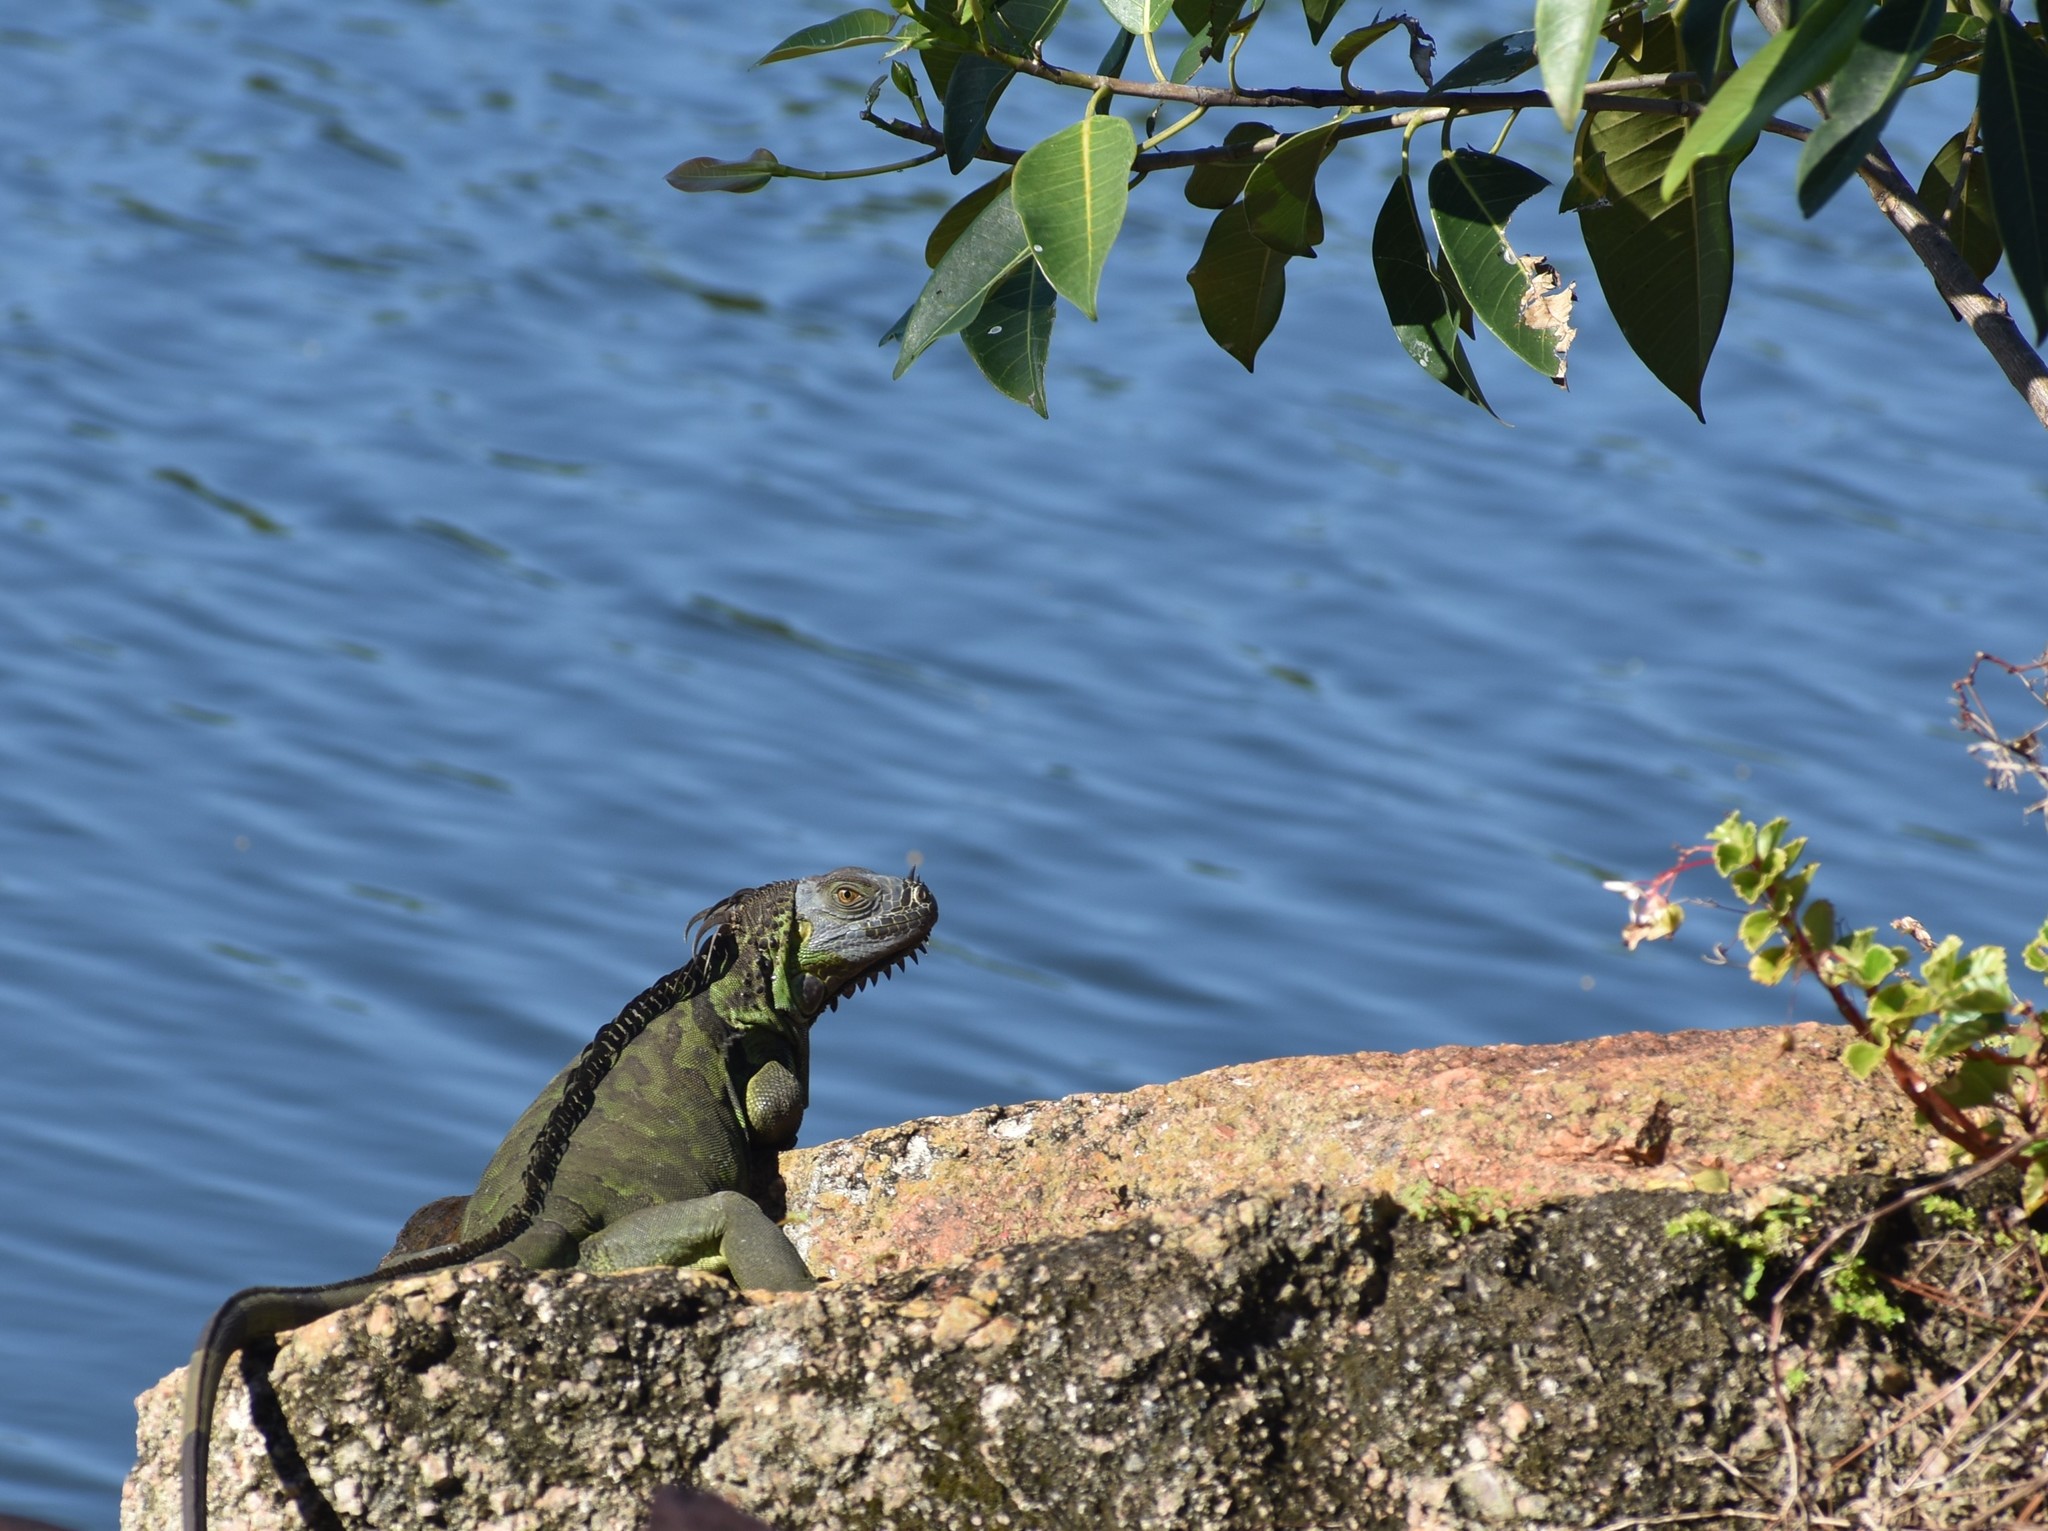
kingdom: Animalia
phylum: Chordata
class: Squamata
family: Iguanidae
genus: Iguana
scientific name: Iguana iguana
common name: Green iguana
